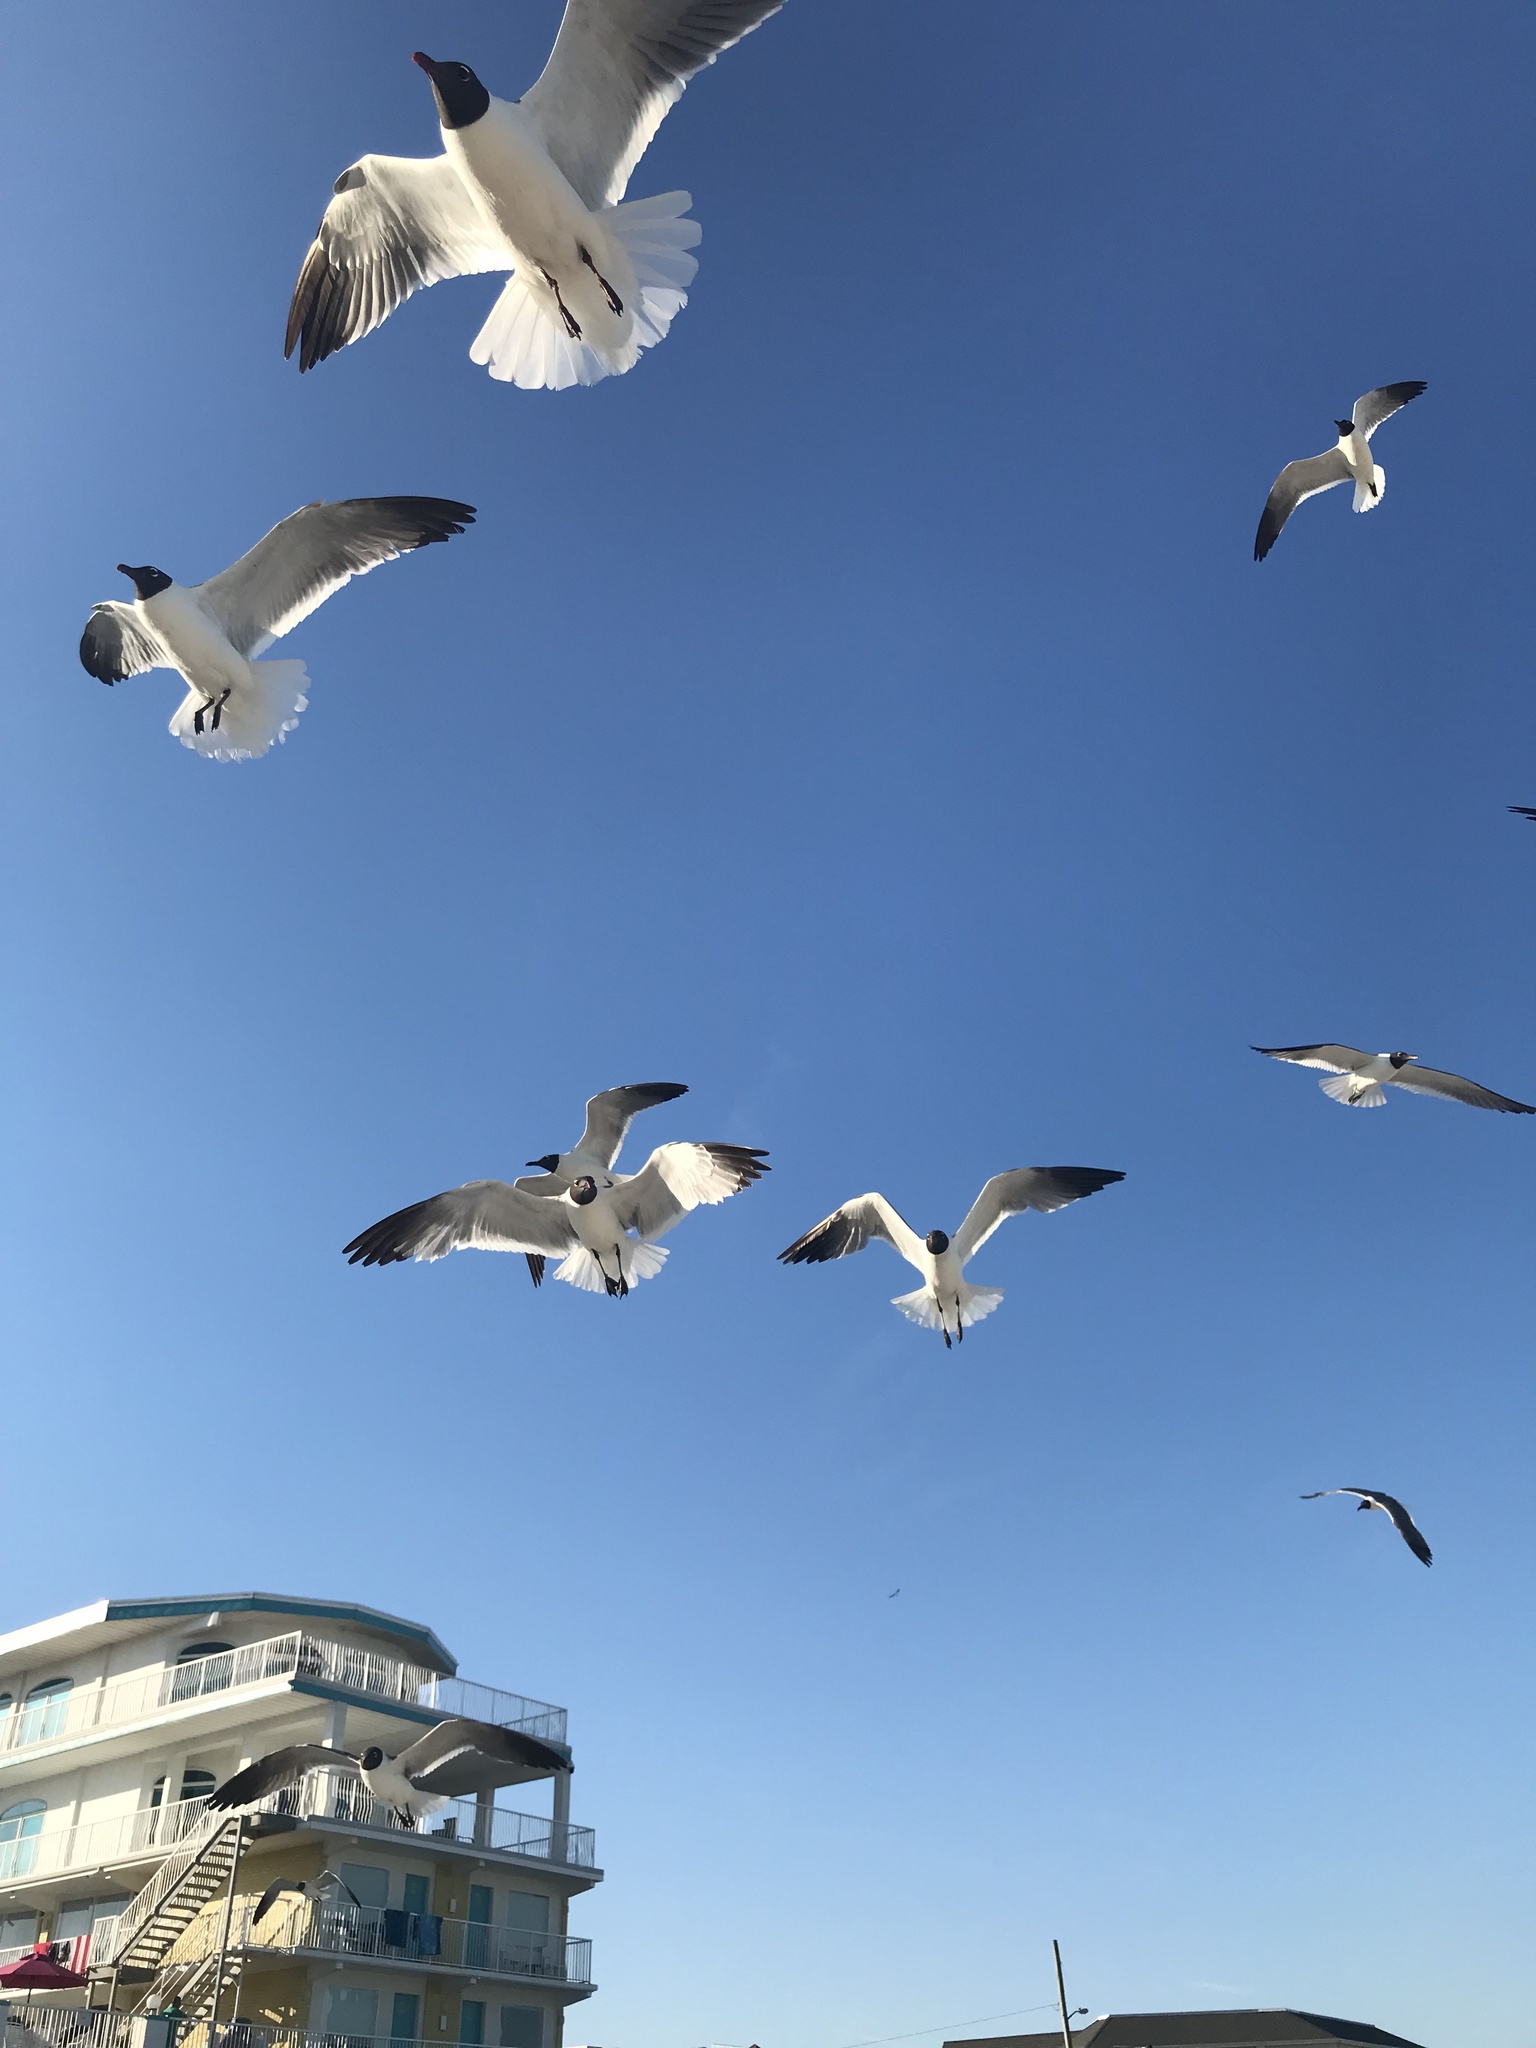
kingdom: Animalia
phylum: Chordata
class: Aves
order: Charadriiformes
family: Laridae
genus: Leucophaeus
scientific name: Leucophaeus atricilla
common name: Laughing gull
